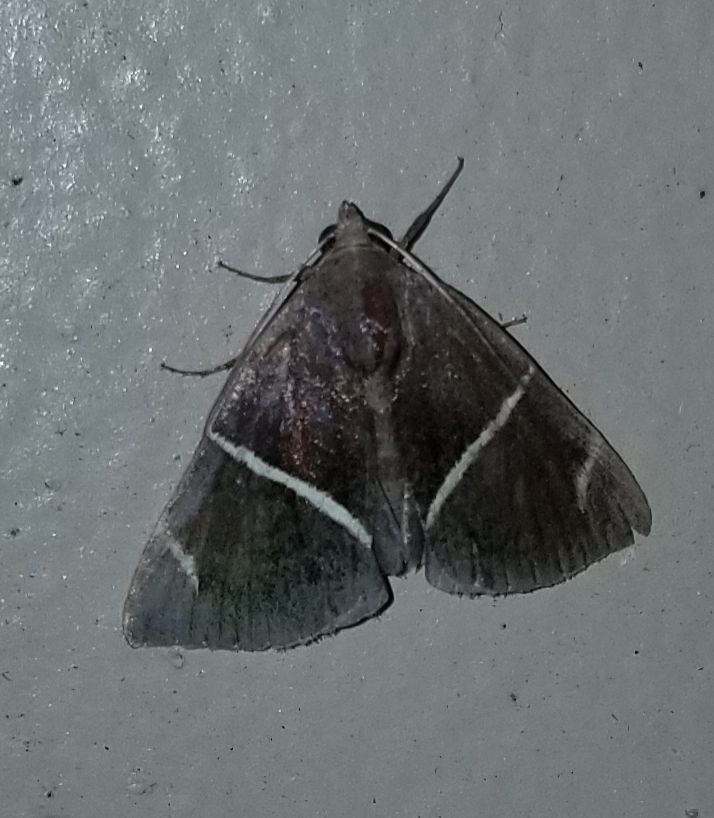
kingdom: Animalia
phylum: Arthropoda
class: Insecta
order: Lepidoptera
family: Erebidae
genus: Argyrostrotis
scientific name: Argyrostrotis anilis
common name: Short-lined chocolate
